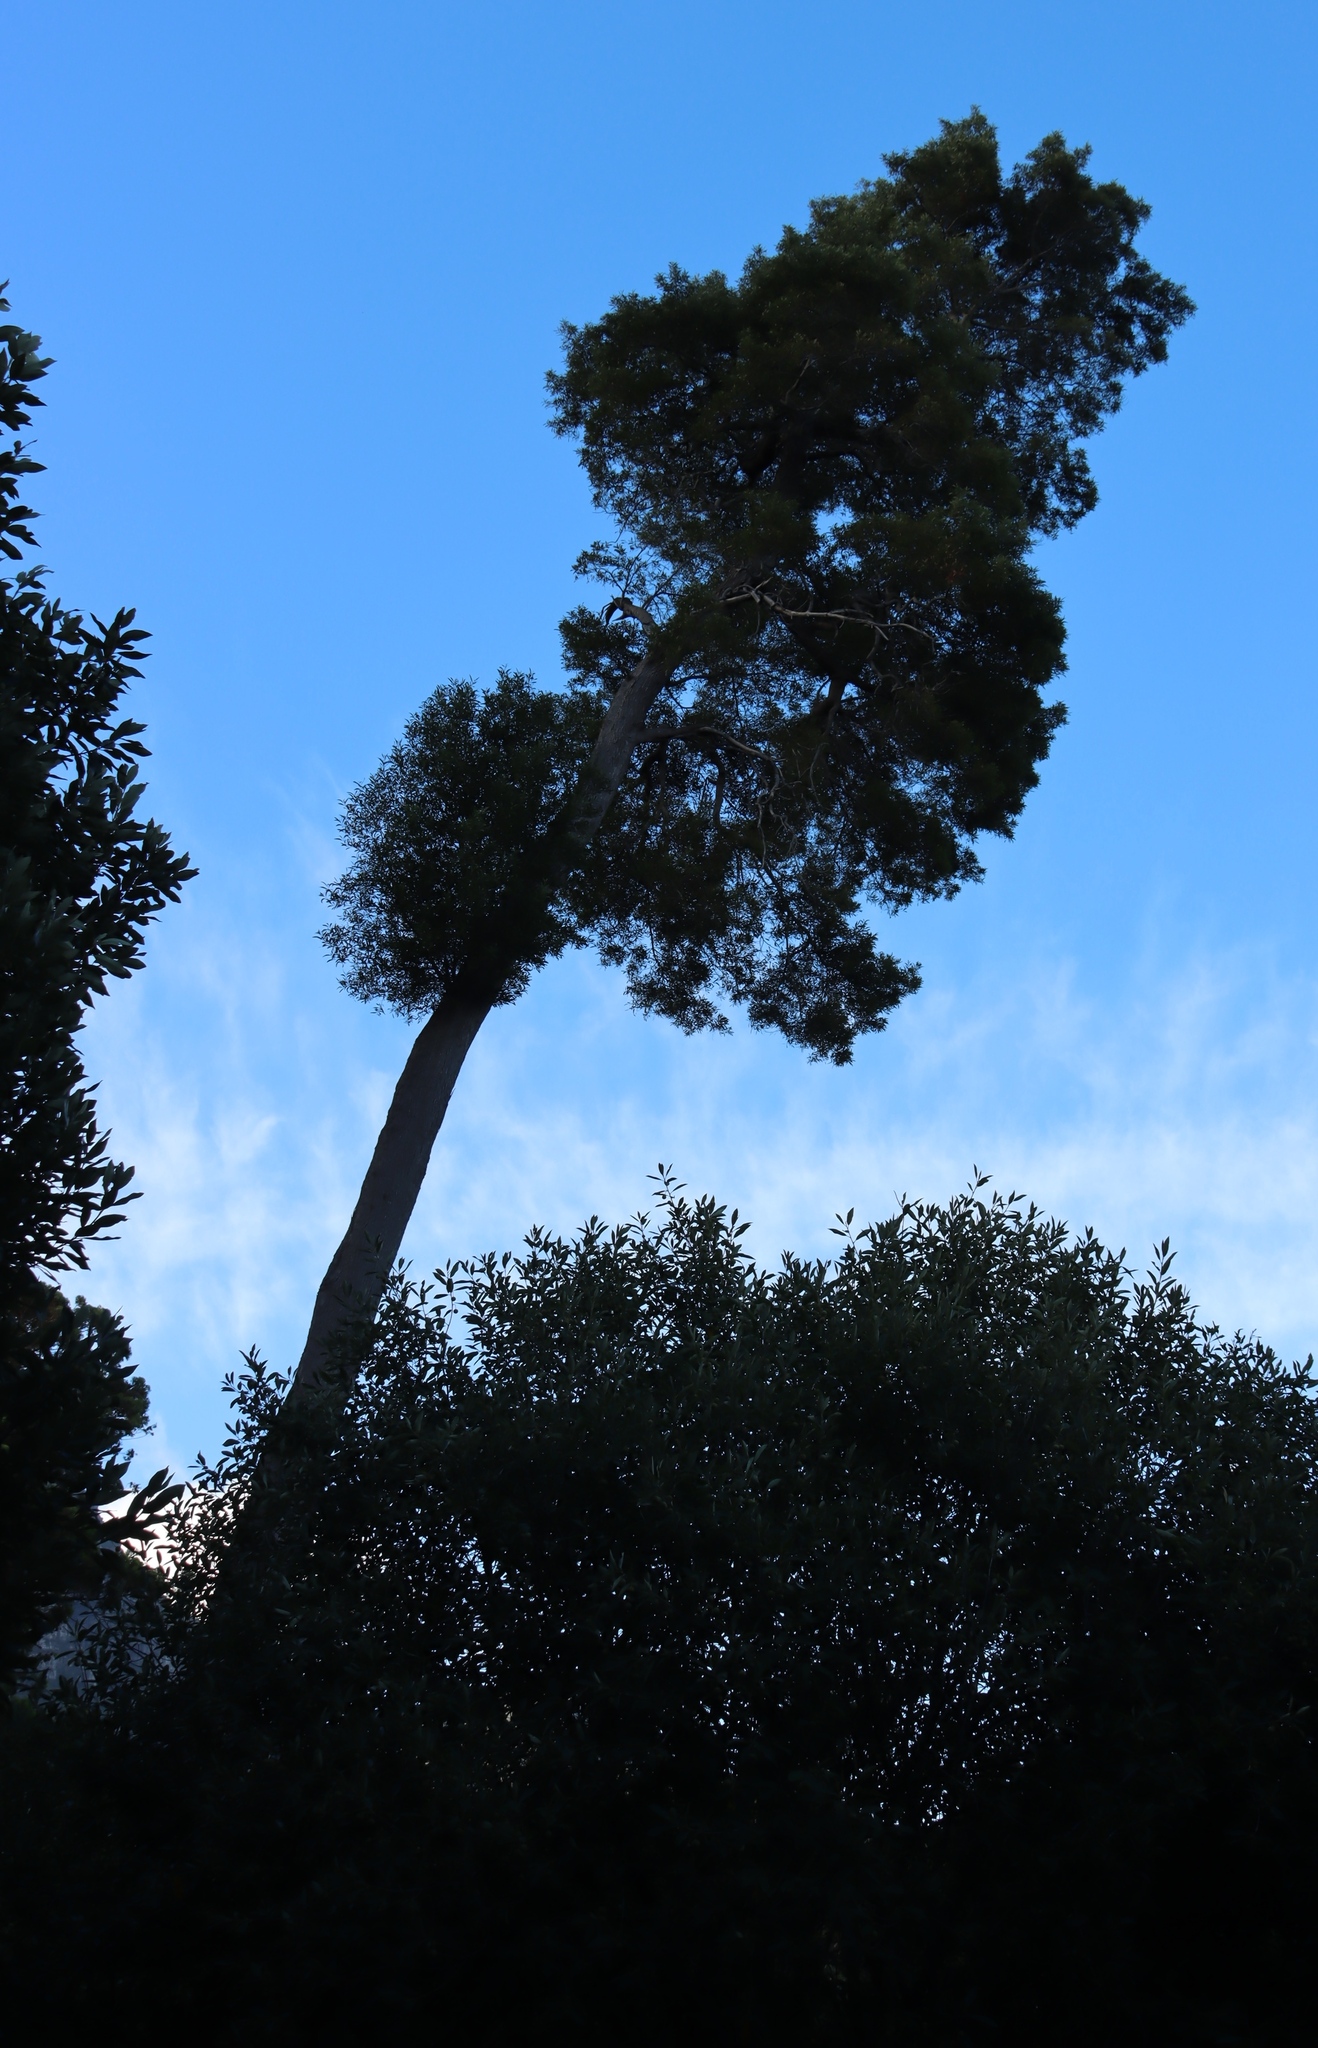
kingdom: Plantae
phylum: Tracheophyta
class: Magnoliopsida
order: Fabales
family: Fabaceae
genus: Acacia
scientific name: Acacia melanoxylon
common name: Blackwood
